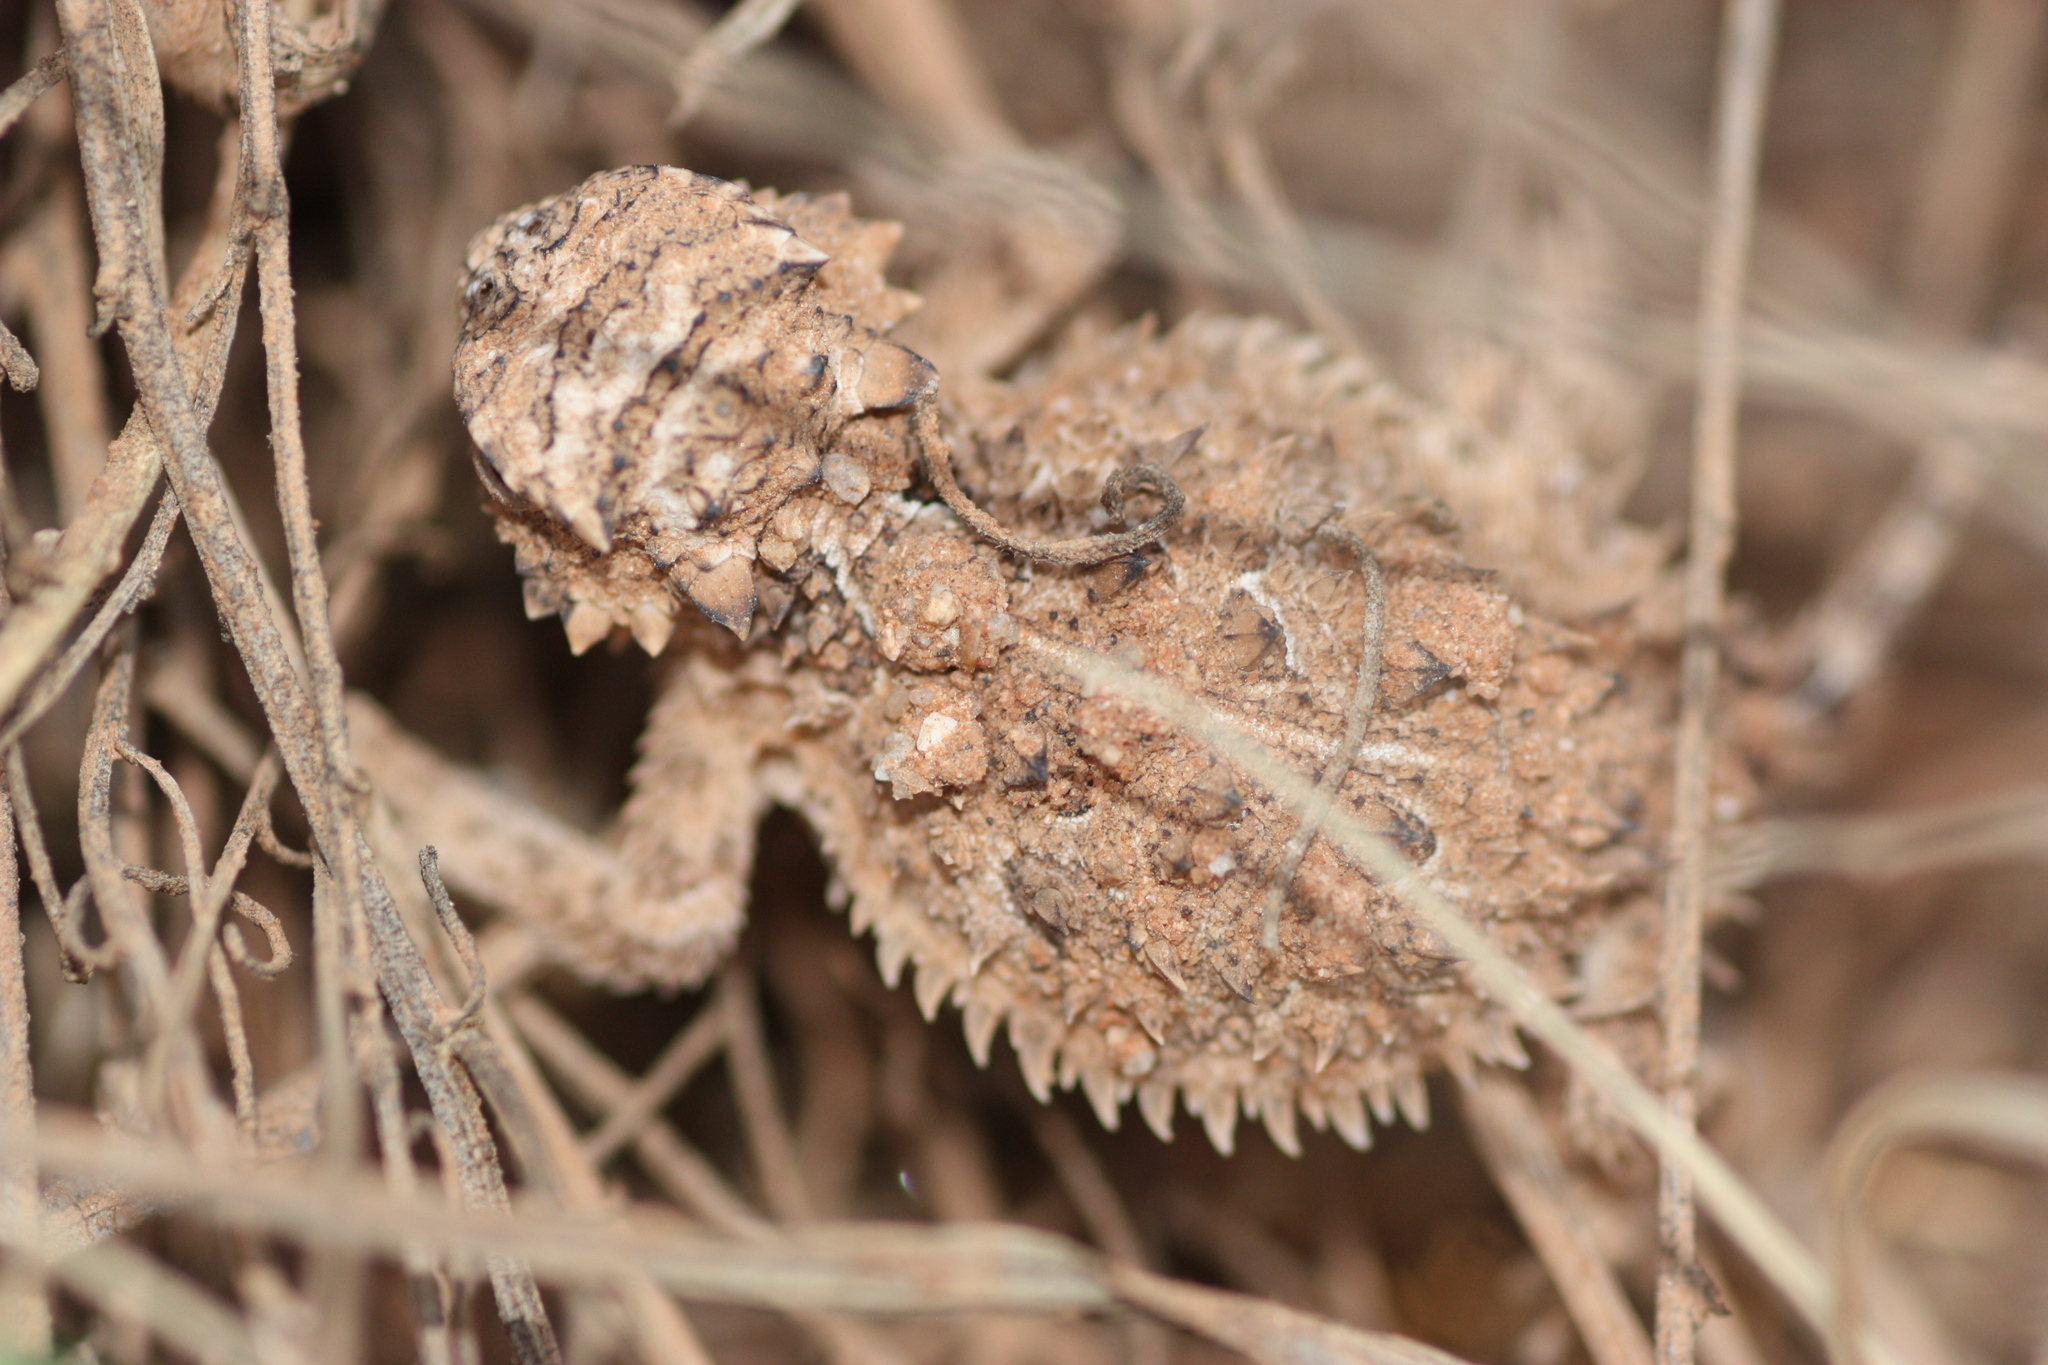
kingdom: Animalia
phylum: Chordata
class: Squamata
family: Phrynosomatidae
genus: Phrynosoma
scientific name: Phrynosoma cornutum
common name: Texas horned lizard
